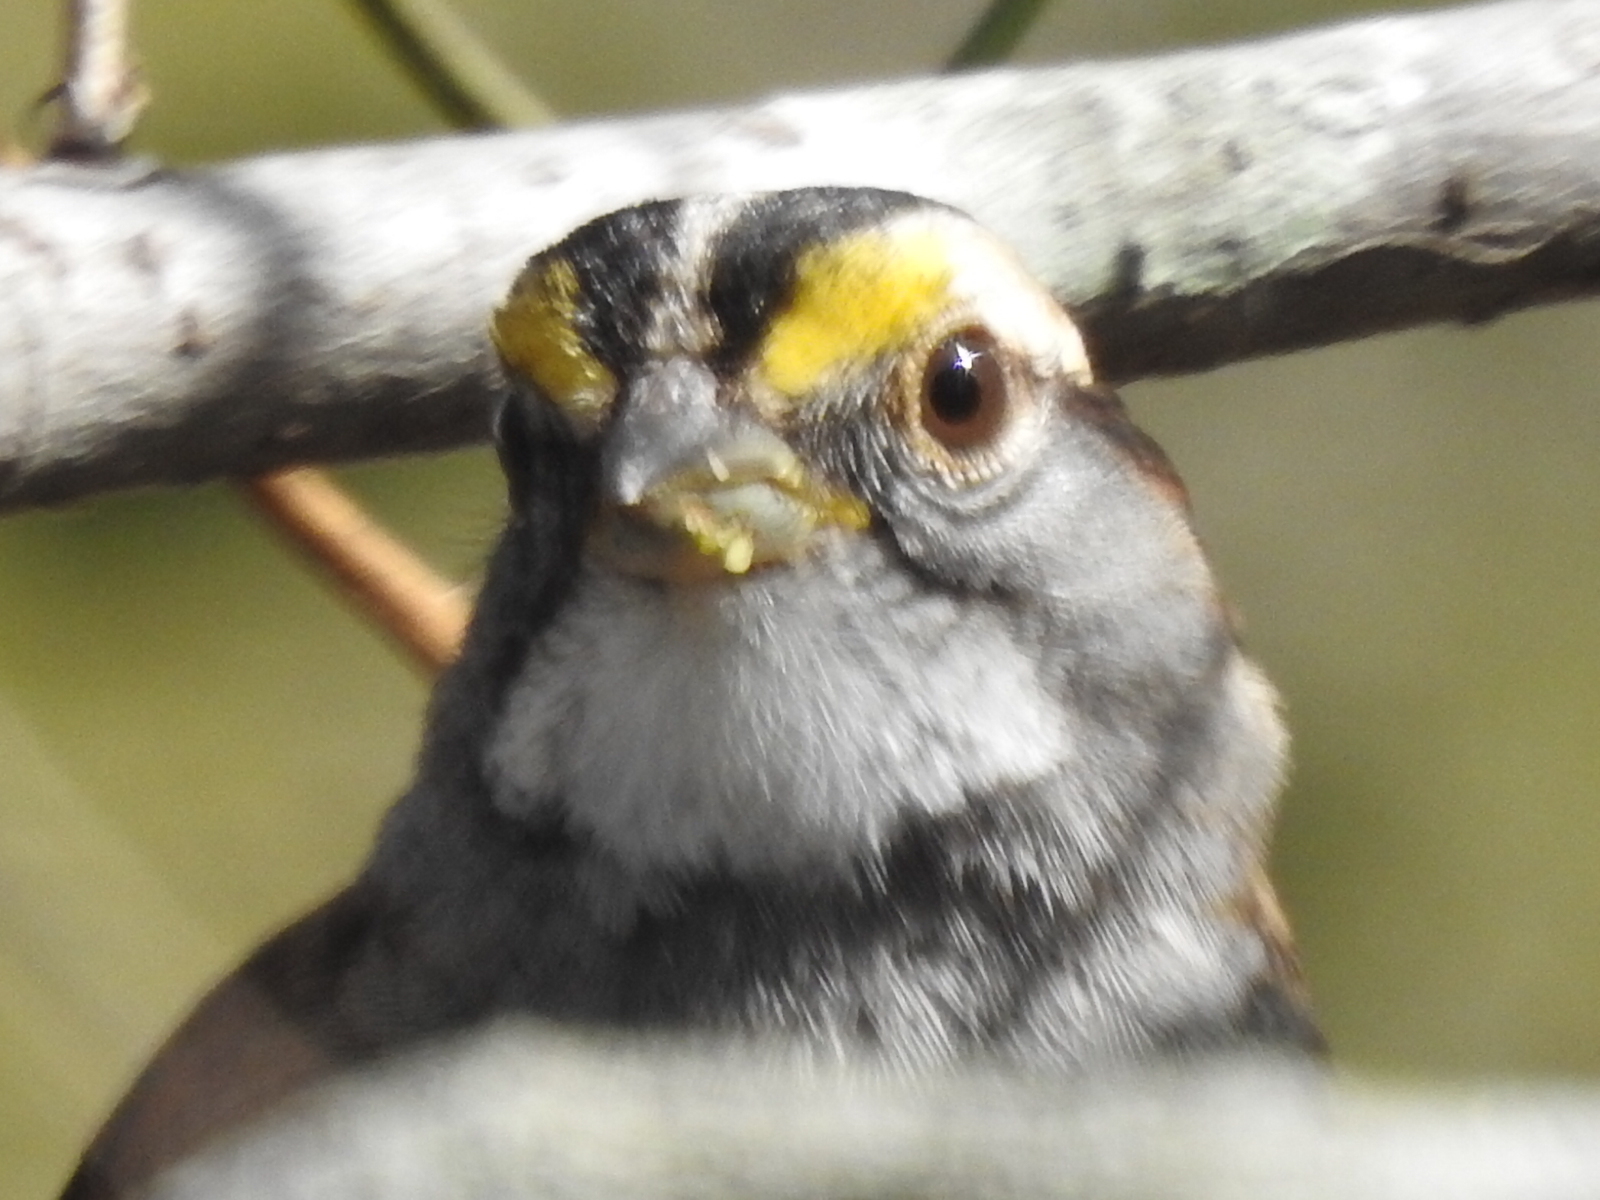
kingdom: Animalia
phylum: Chordata
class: Aves
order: Passeriformes
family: Passerellidae
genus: Zonotrichia
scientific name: Zonotrichia albicollis
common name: White-throated sparrow
